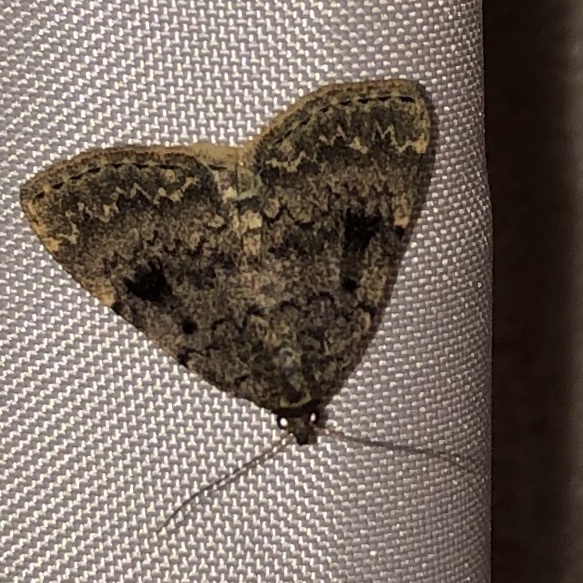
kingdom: Animalia
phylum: Arthropoda
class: Insecta
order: Lepidoptera
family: Erebidae
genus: Idia
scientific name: Idia aemula
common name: Common idia moth
